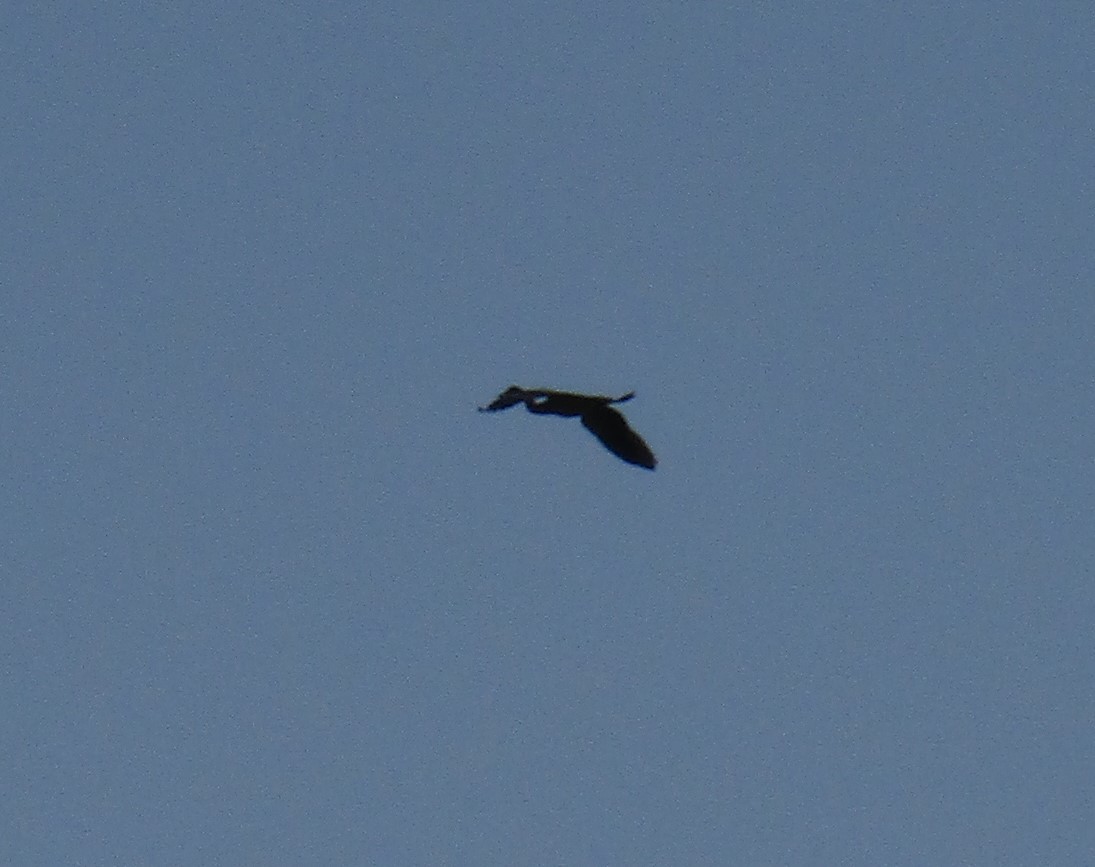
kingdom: Animalia
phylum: Chordata
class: Aves
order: Pelecaniformes
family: Ardeidae
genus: Syrigma
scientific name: Syrigma sibilatrix
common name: Whistling heron
